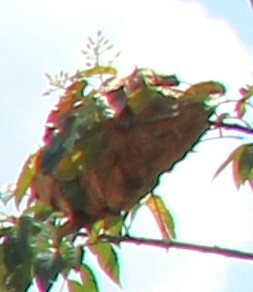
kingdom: Animalia
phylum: Arthropoda
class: Insecta
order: Hymenoptera
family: Formicidae
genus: Oecophylla
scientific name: Oecophylla smaragdina
